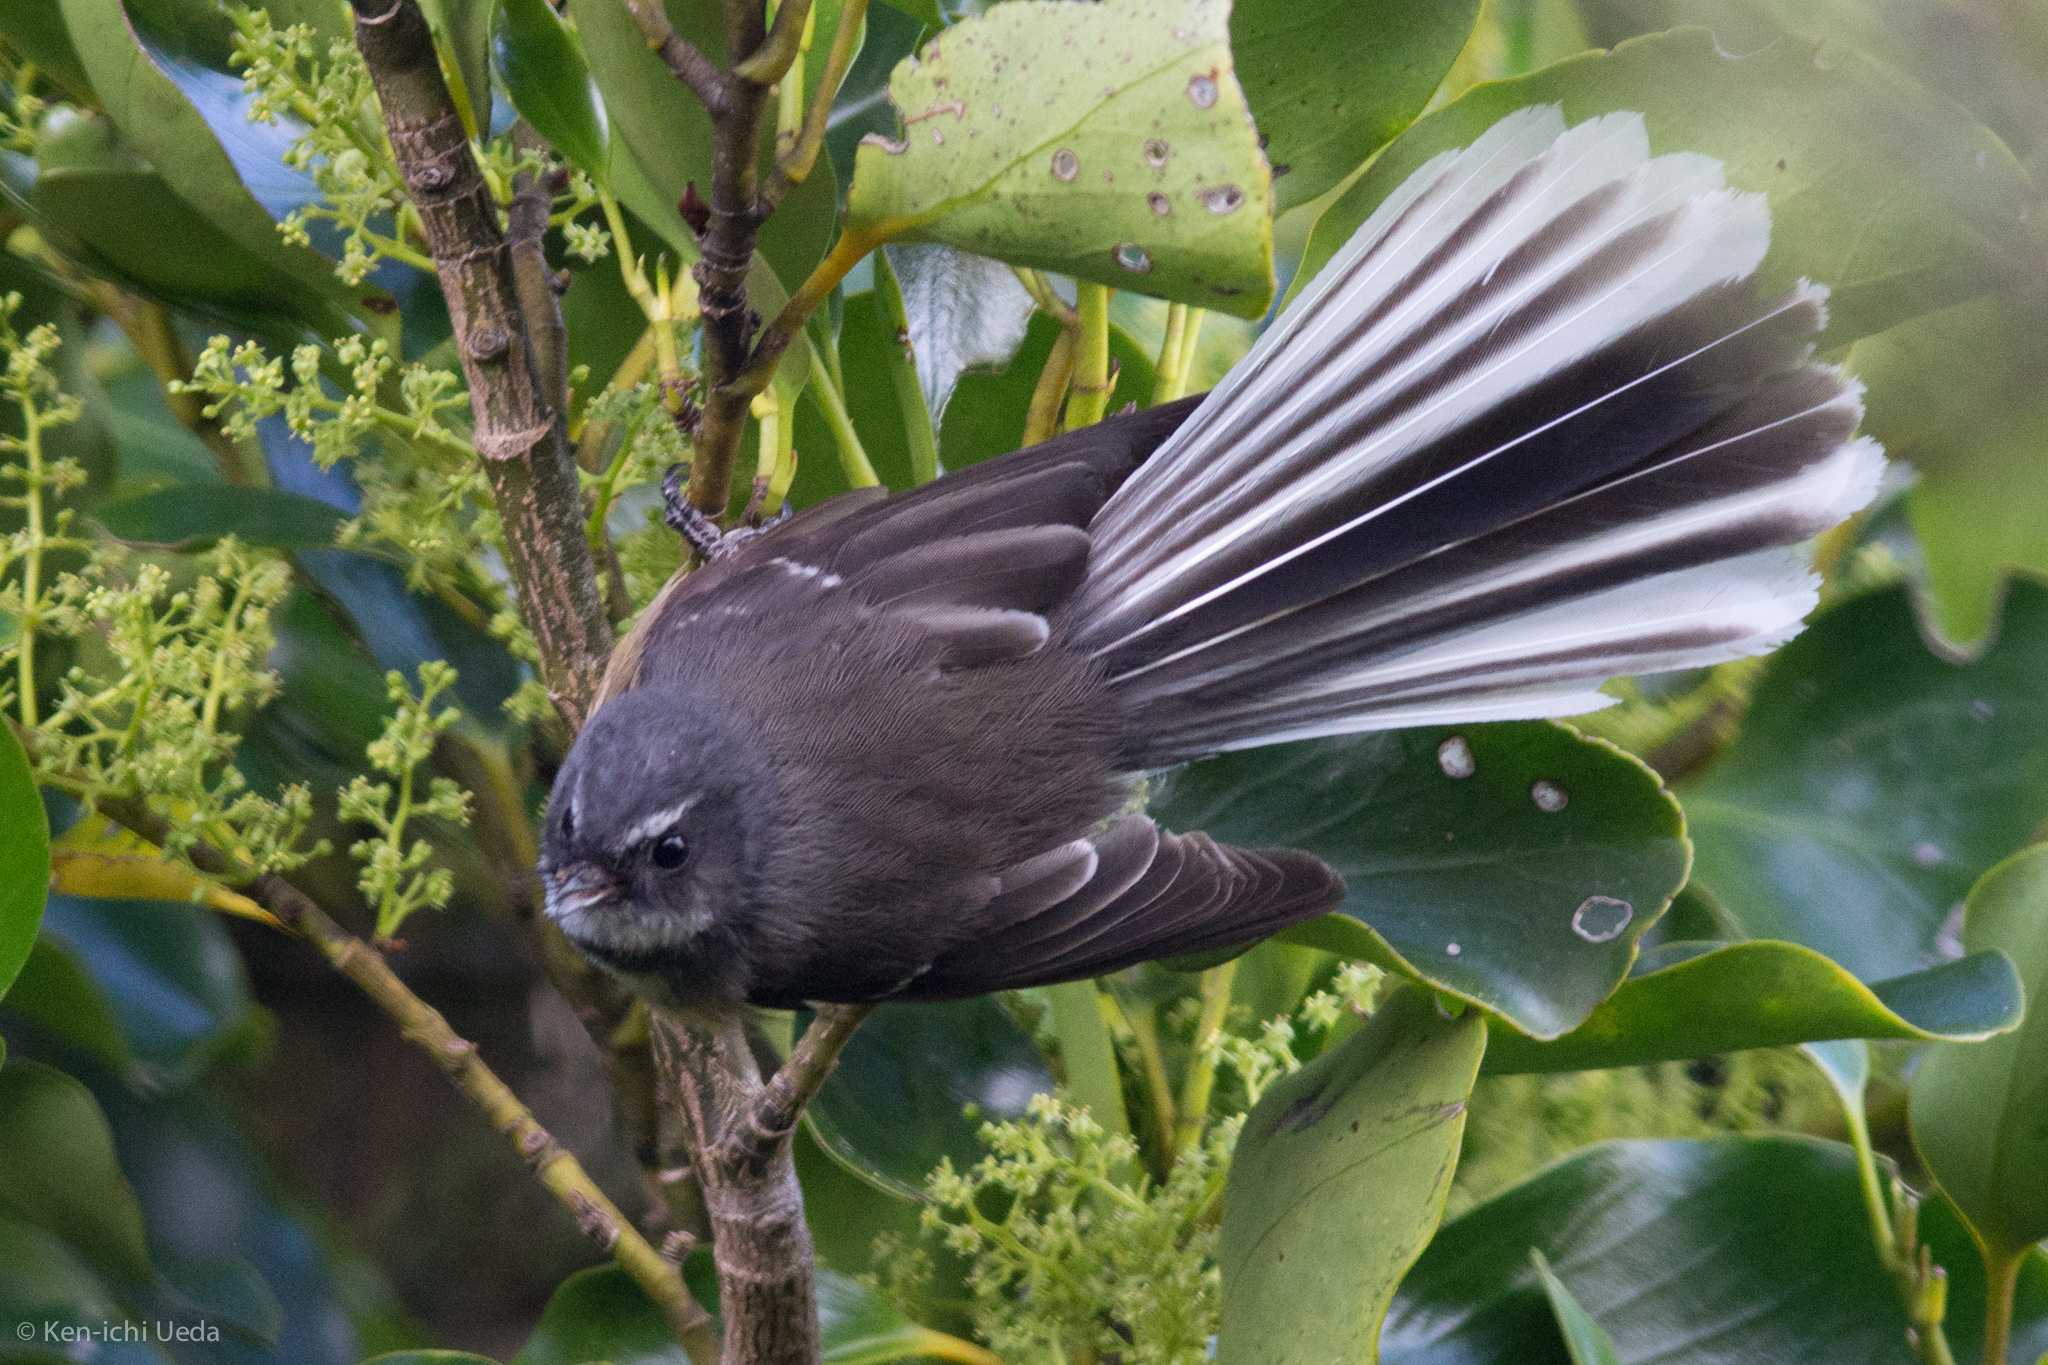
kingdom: Animalia
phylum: Chordata
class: Aves
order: Passeriformes
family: Rhipiduridae
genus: Rhipidura
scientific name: Rhipidura fuliginosa
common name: New zealand fantail
